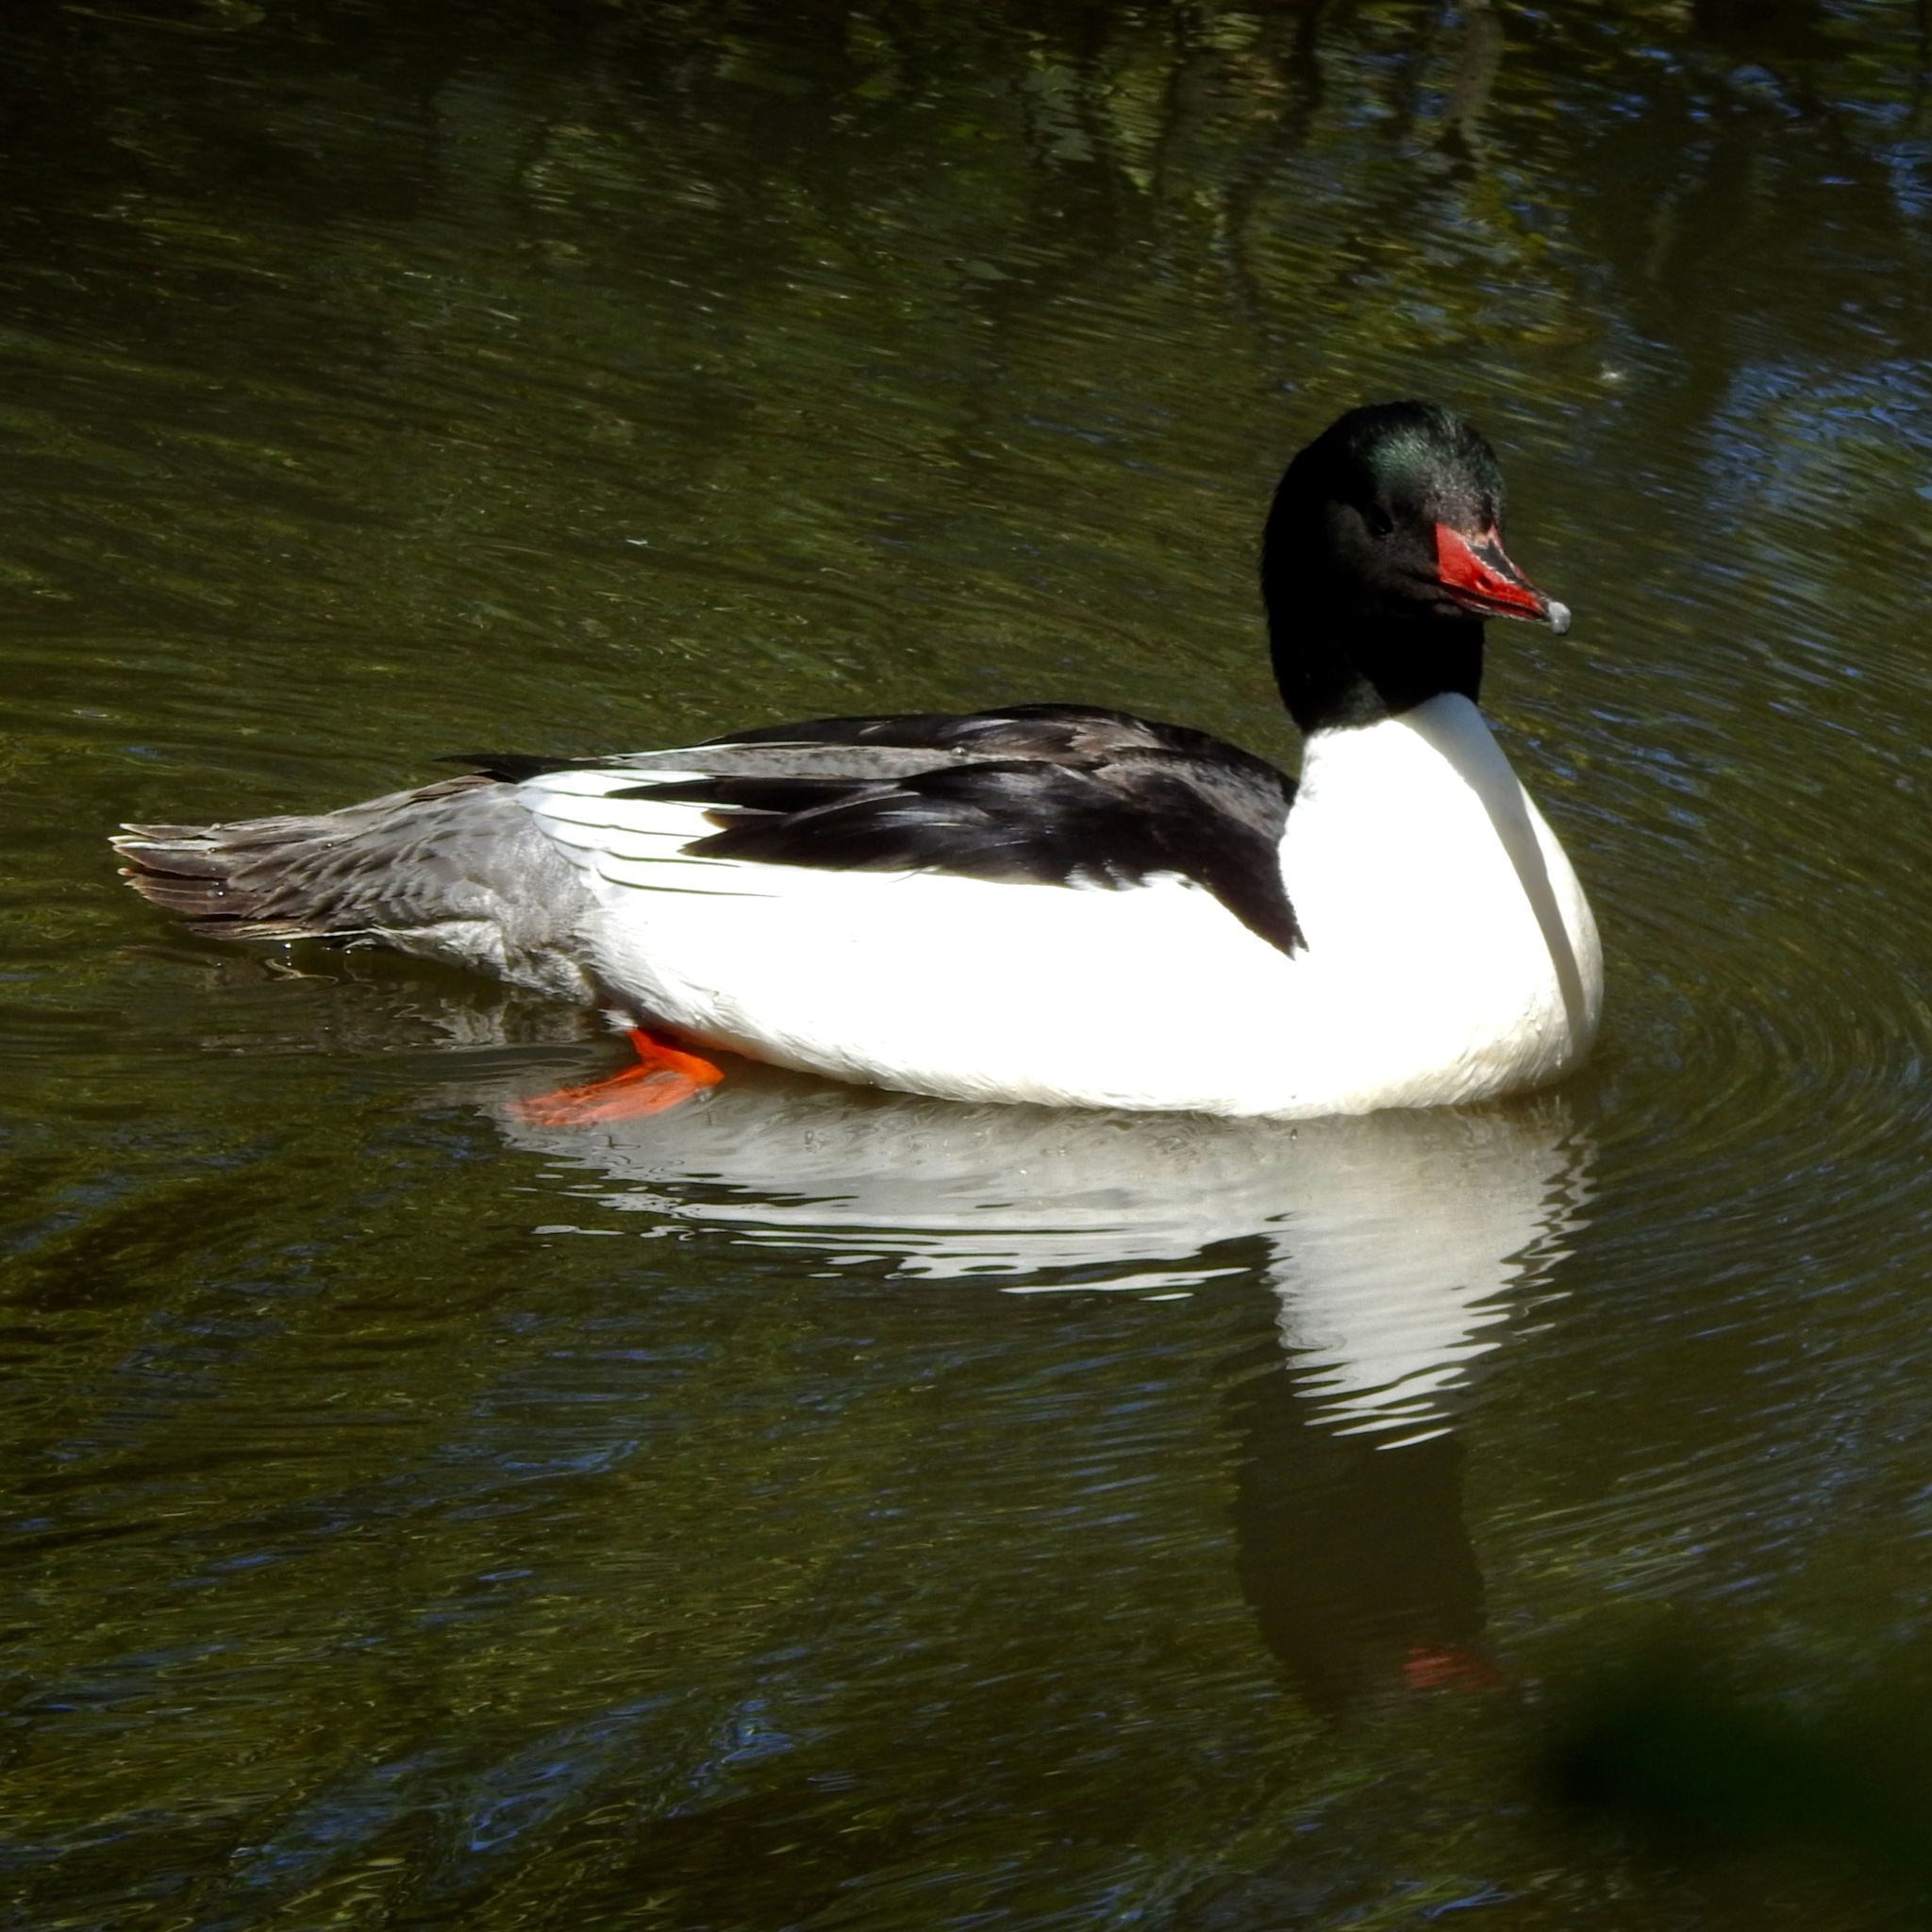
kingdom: Animalia
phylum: Chordata
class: Aves
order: Anseriformes
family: Anatidae
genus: Mergus
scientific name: Mergus merganser
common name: Common merganser
